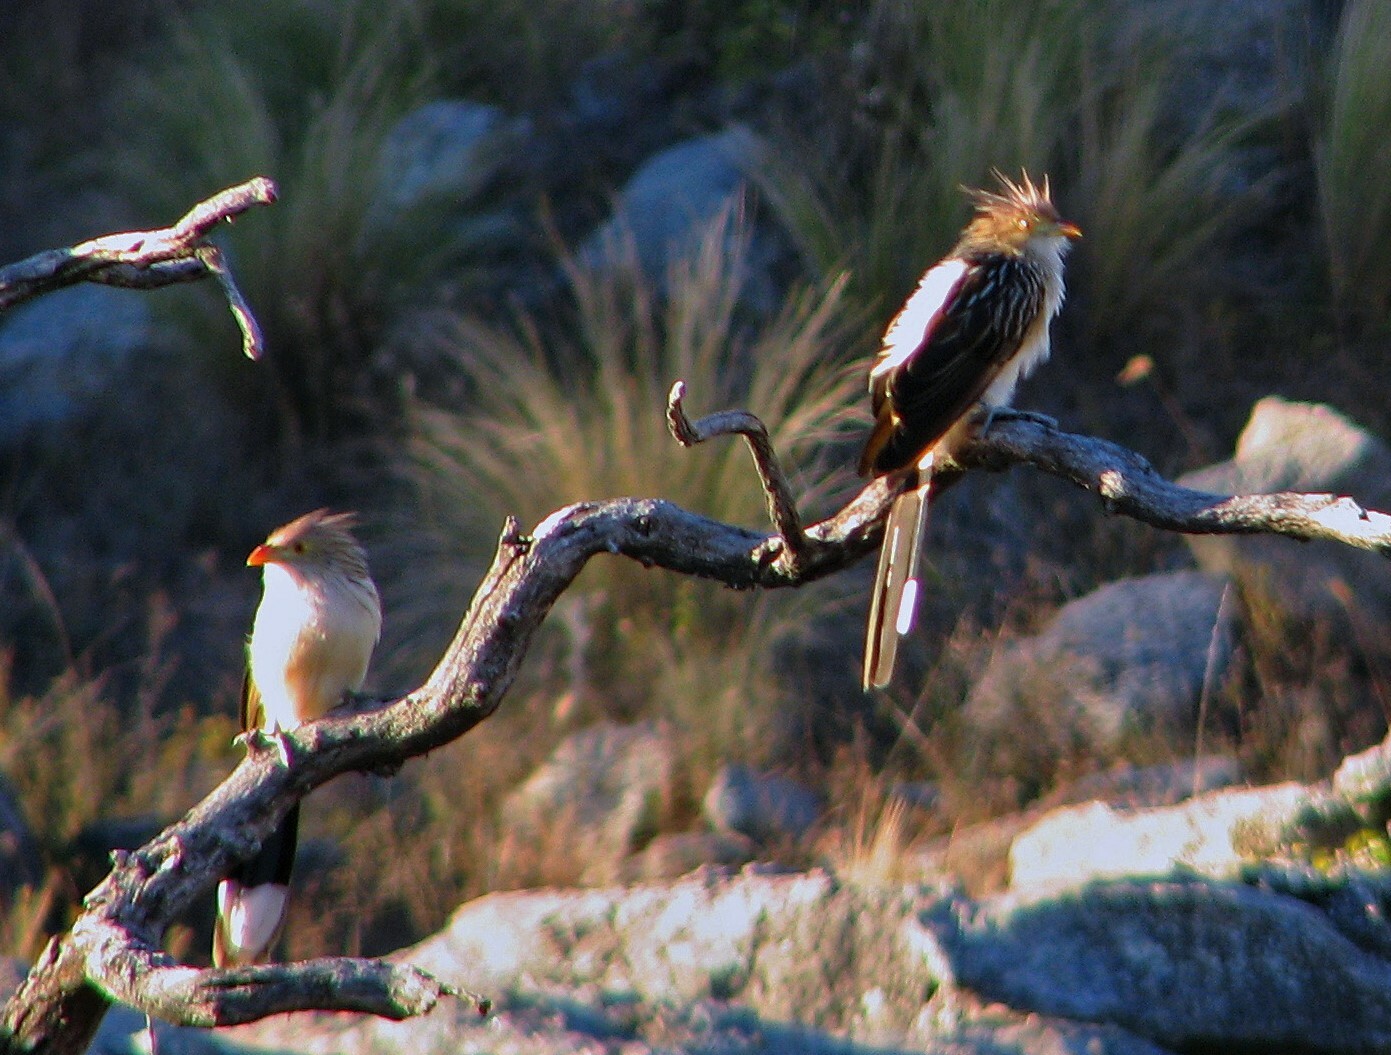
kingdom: Animalia
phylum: Chordata
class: Aves
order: Cuculiformes
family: Cuculidae
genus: Guira
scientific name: Guira guira
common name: Guira cuckoo
